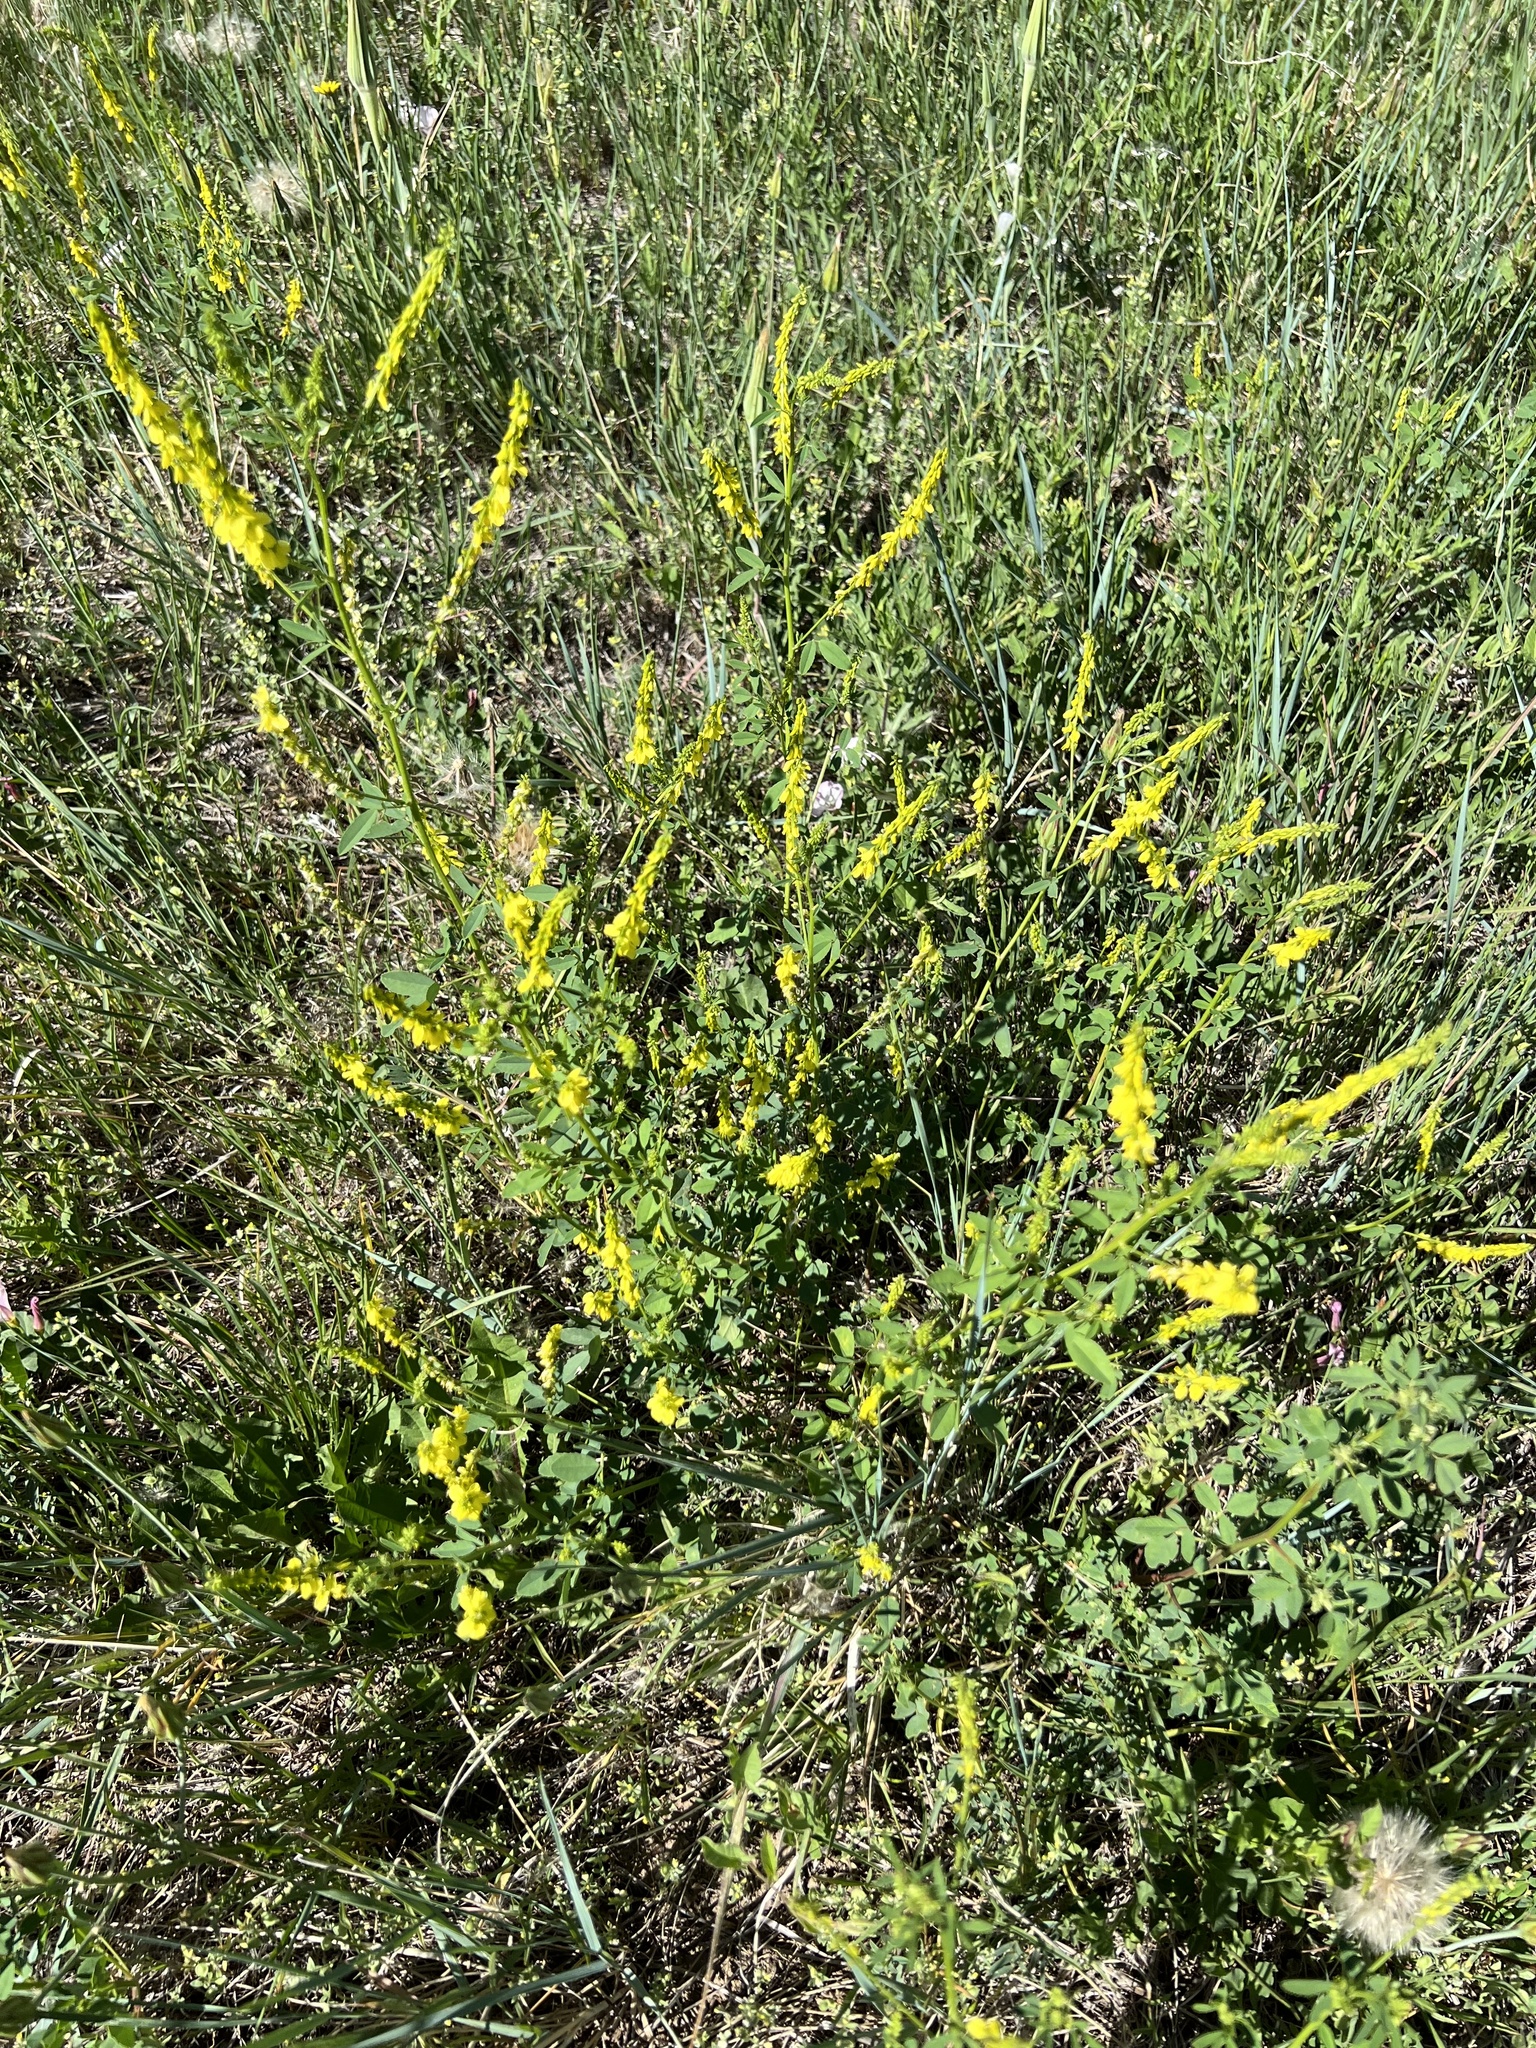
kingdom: Plantae
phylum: Tracheophyta
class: Magnoliopsida
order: Fabales
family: Fabaceae
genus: Melilotus
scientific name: Melilotus officinalis
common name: Sweetclover
